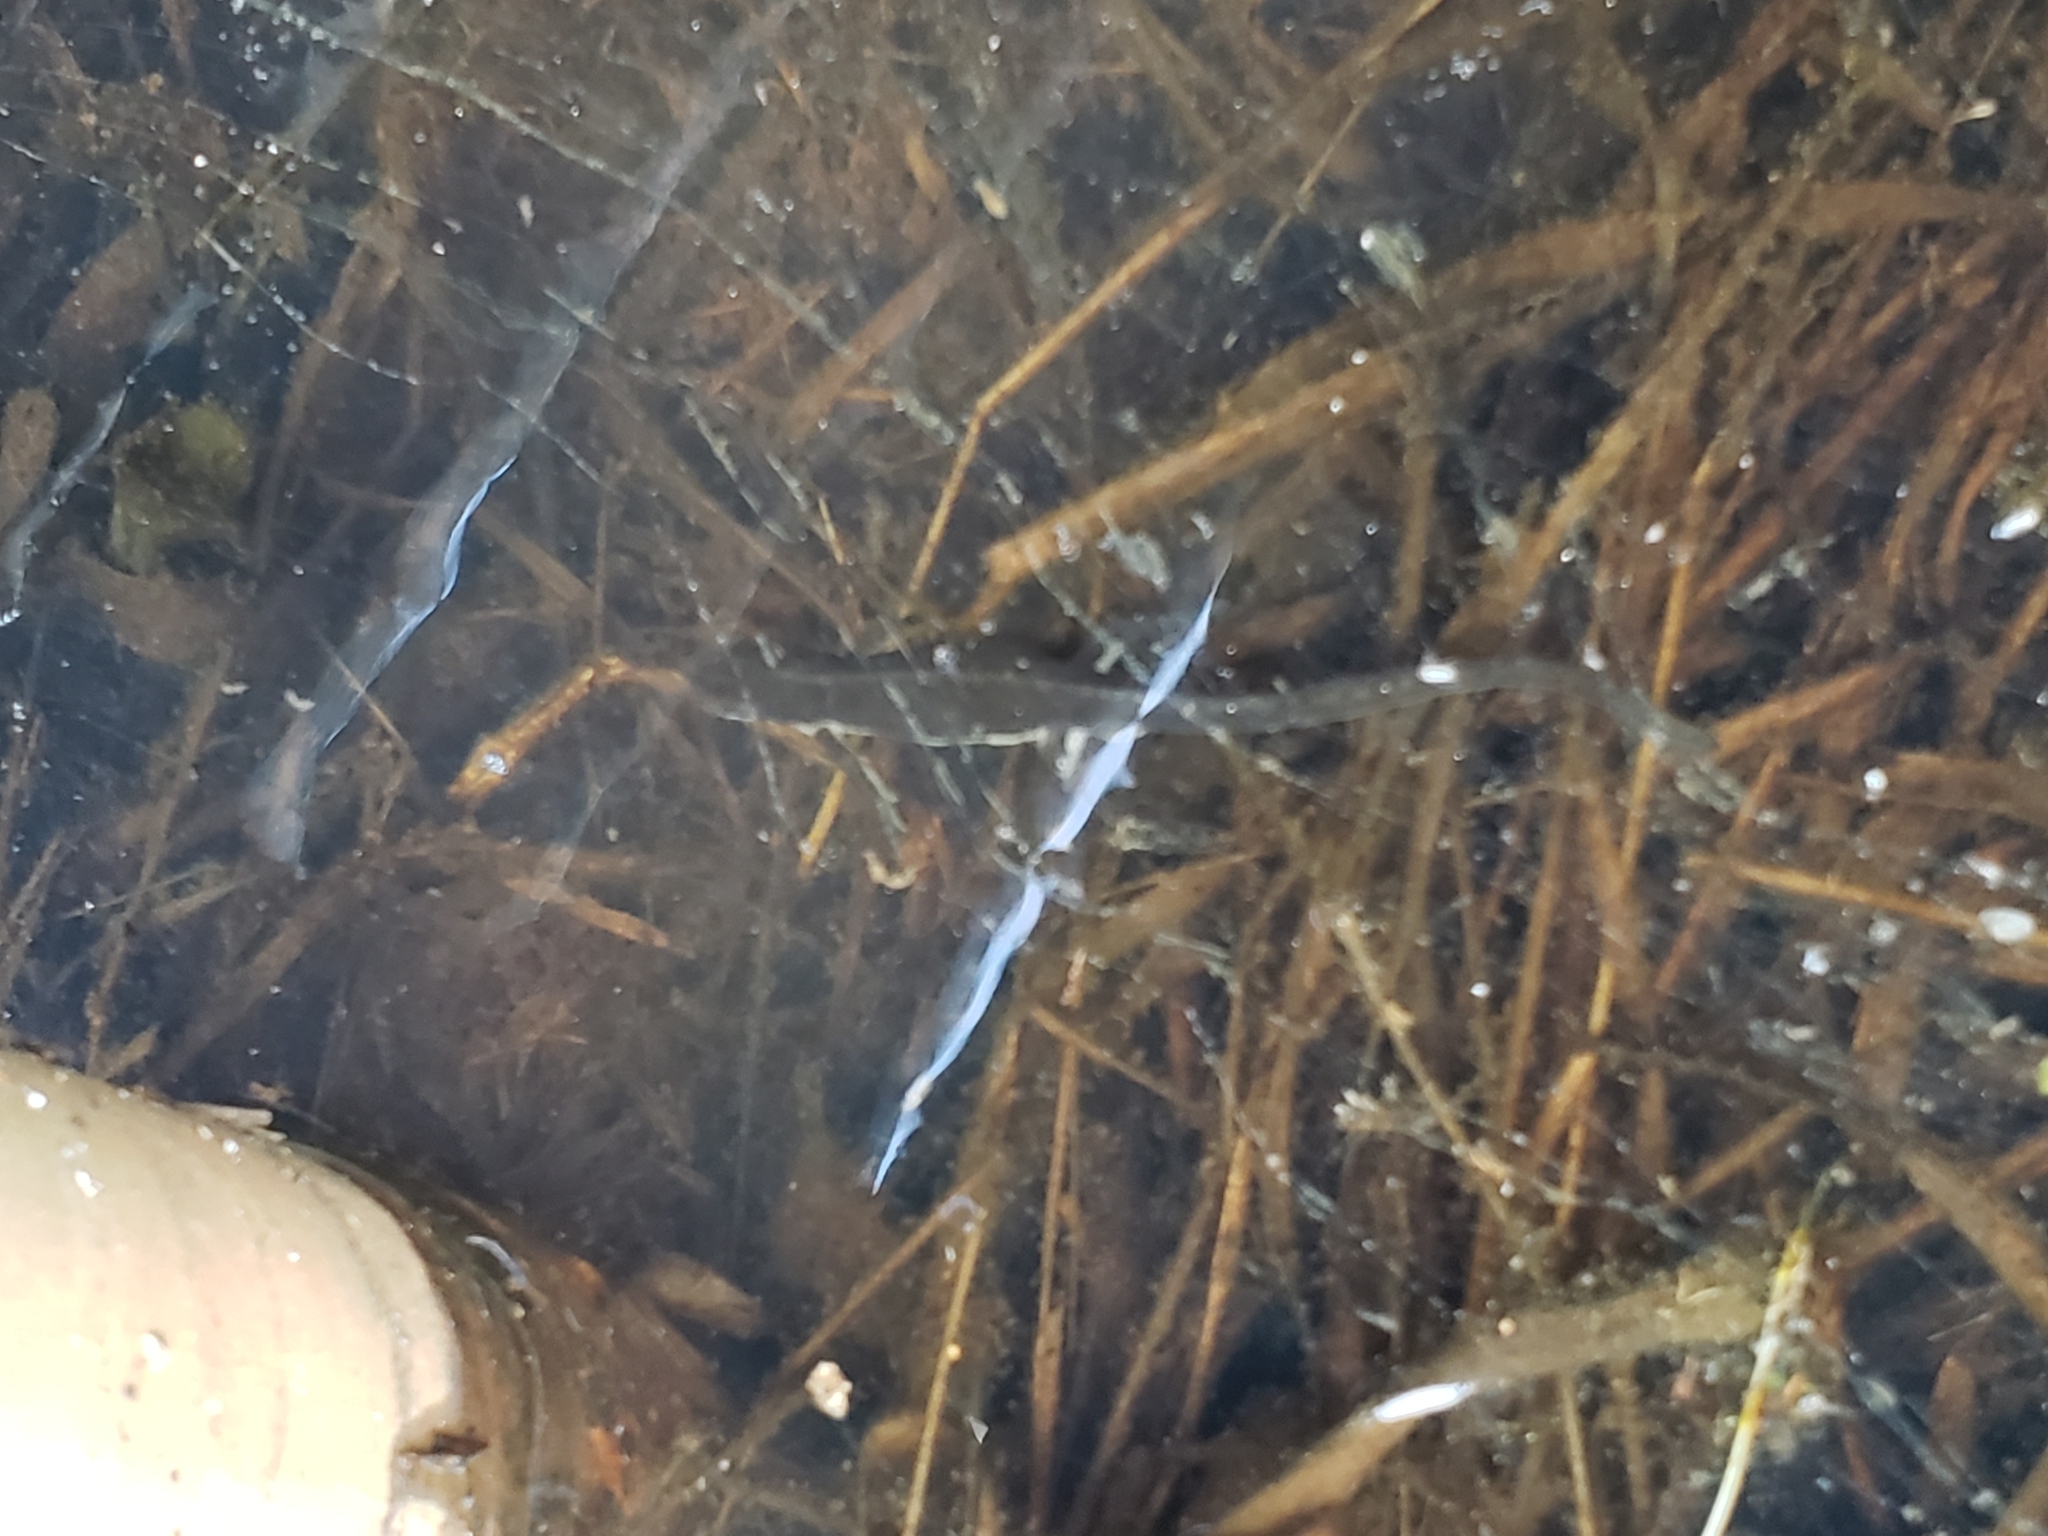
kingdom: Animalia
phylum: Chordata
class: Amphibia
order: Caudata
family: Salamandridae
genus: Notophthalmus
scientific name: Notophthalmus viridescens
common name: Eastern newt
